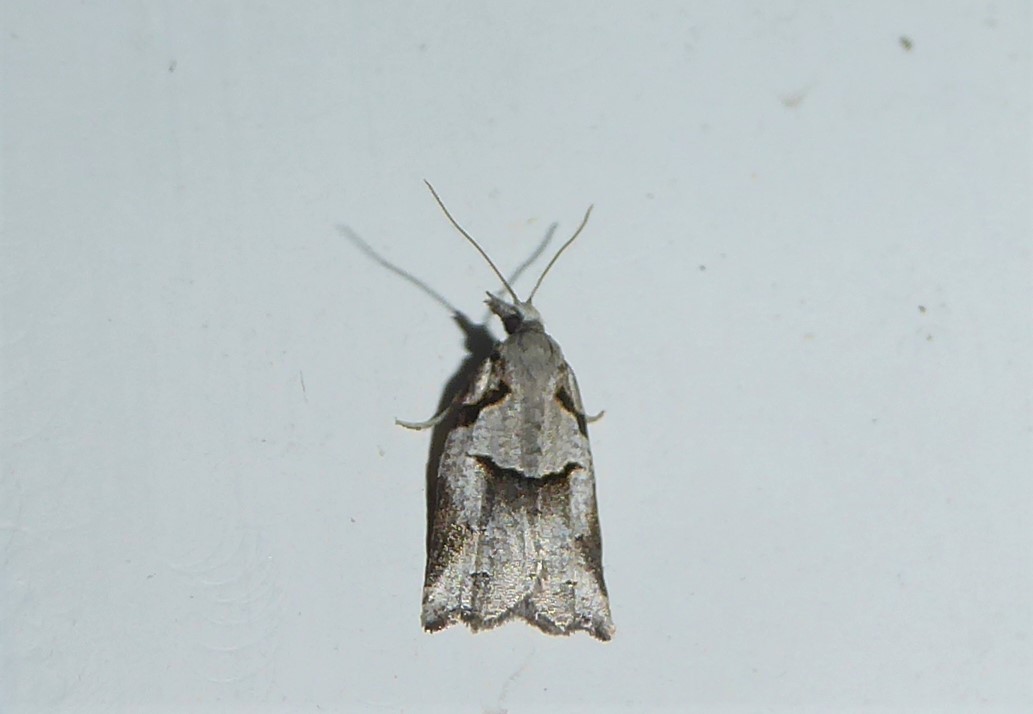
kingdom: Animalia
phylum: Arthropoda
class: Insecta
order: Lepidoptera
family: Tortricidae
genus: Harmologa
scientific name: Harmologa amplexana
